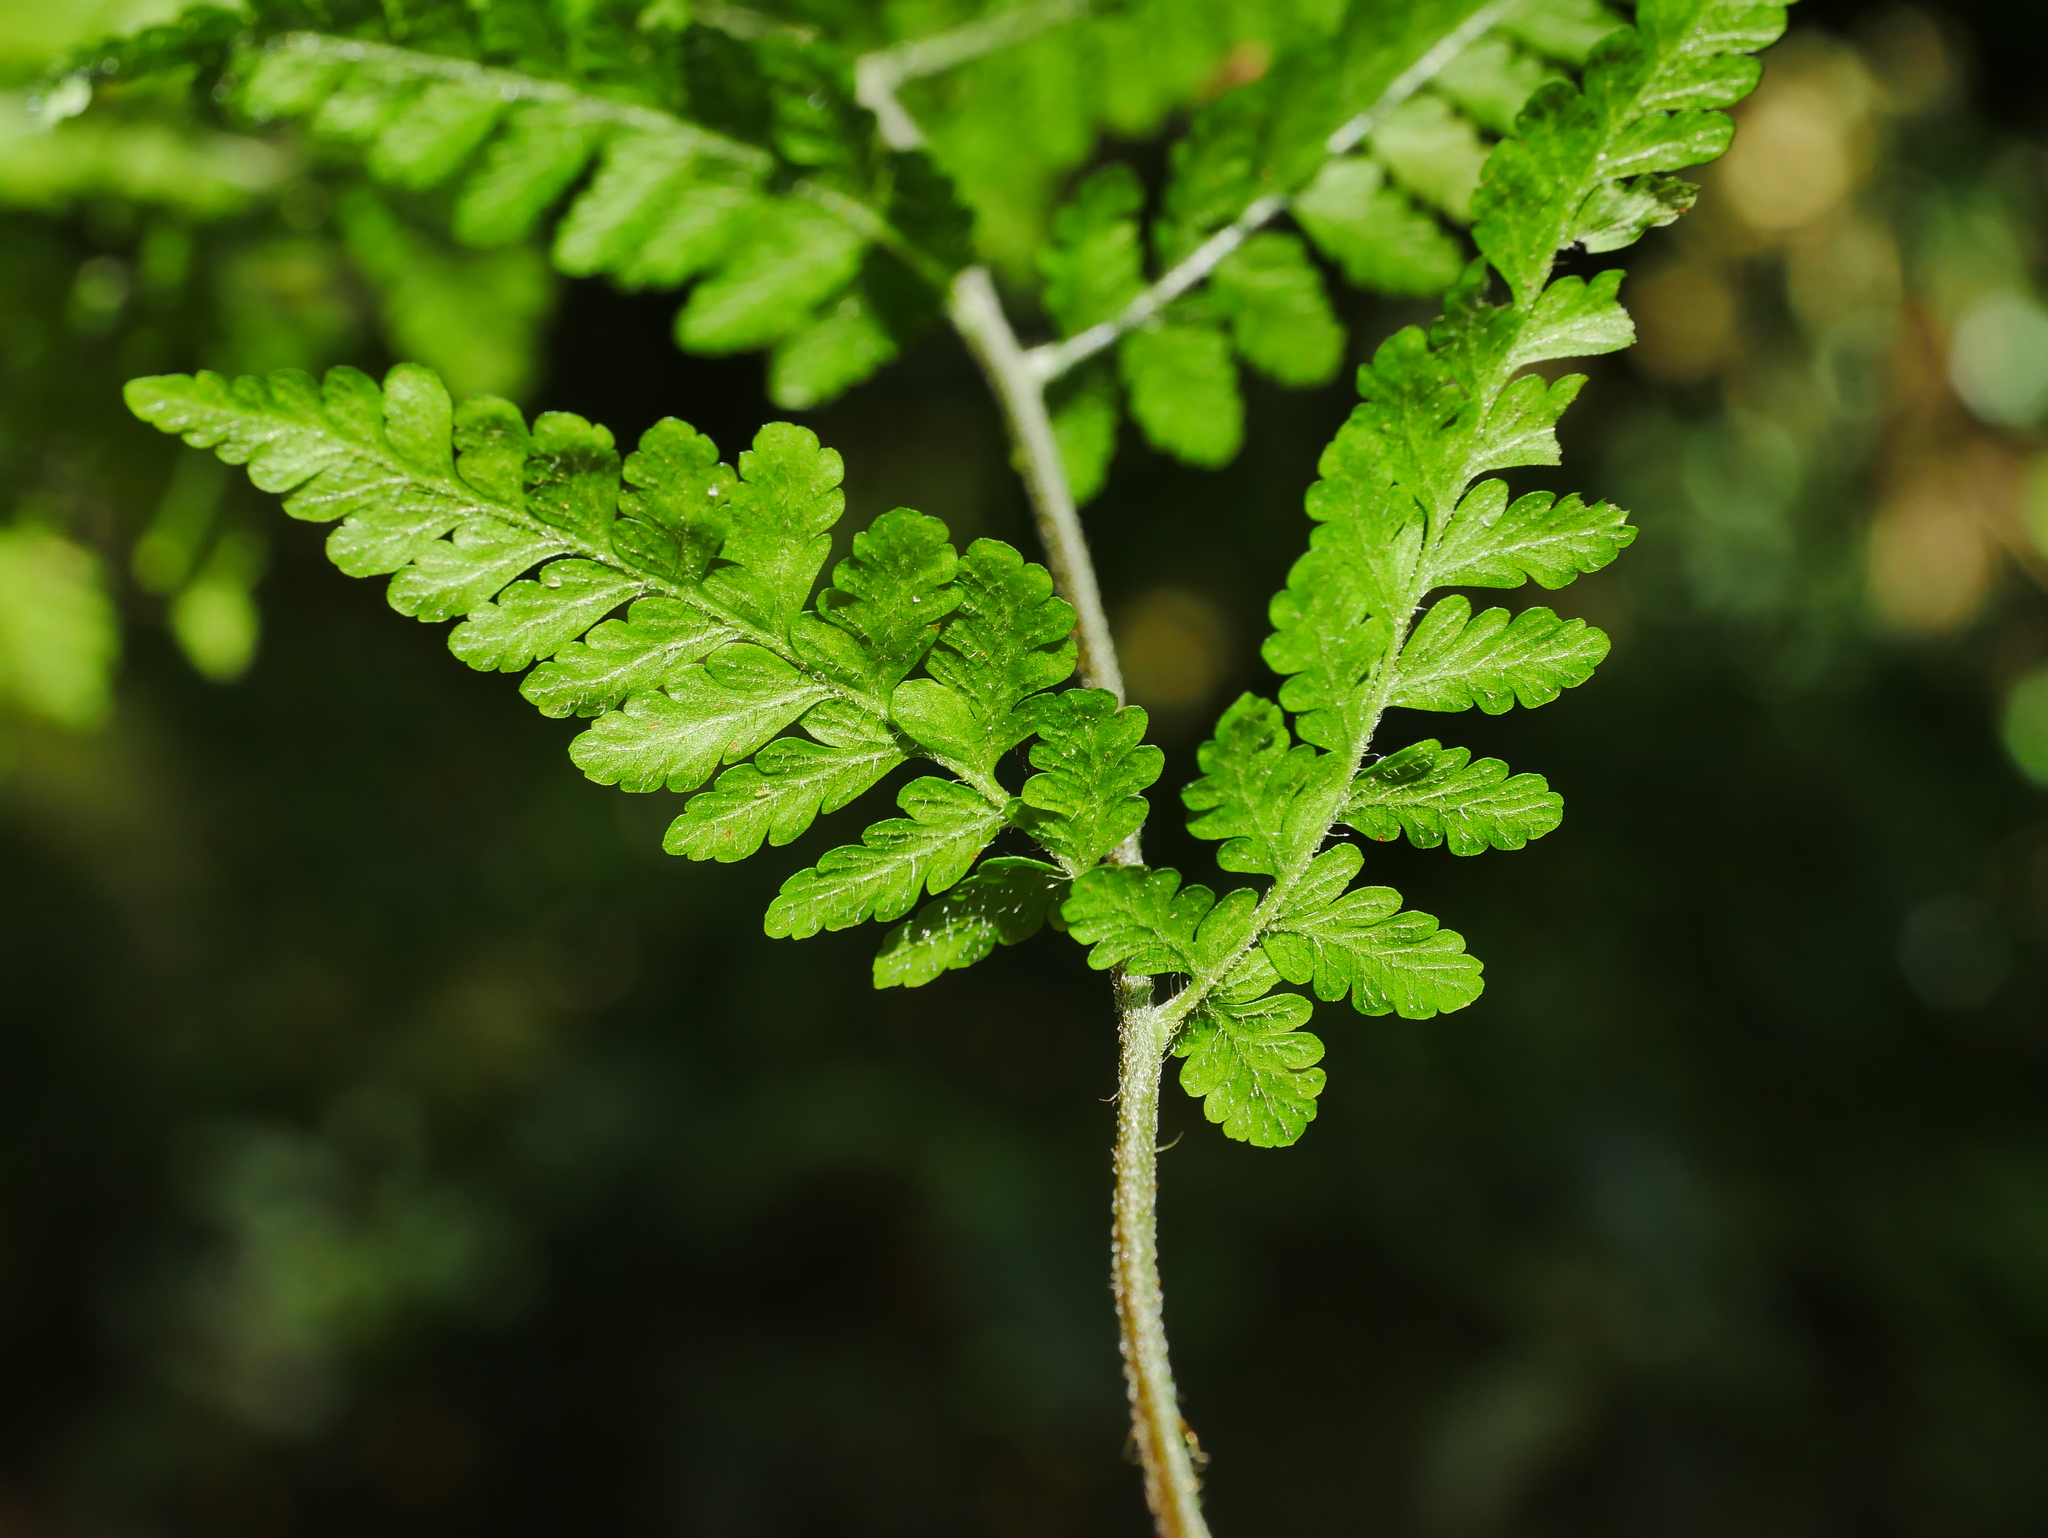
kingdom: Plantae
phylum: Tracheophyta
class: Polypodiopsida
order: Polypodiales
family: Dennstaedtiaceae
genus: Microlepia
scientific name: Microlepia tenera
